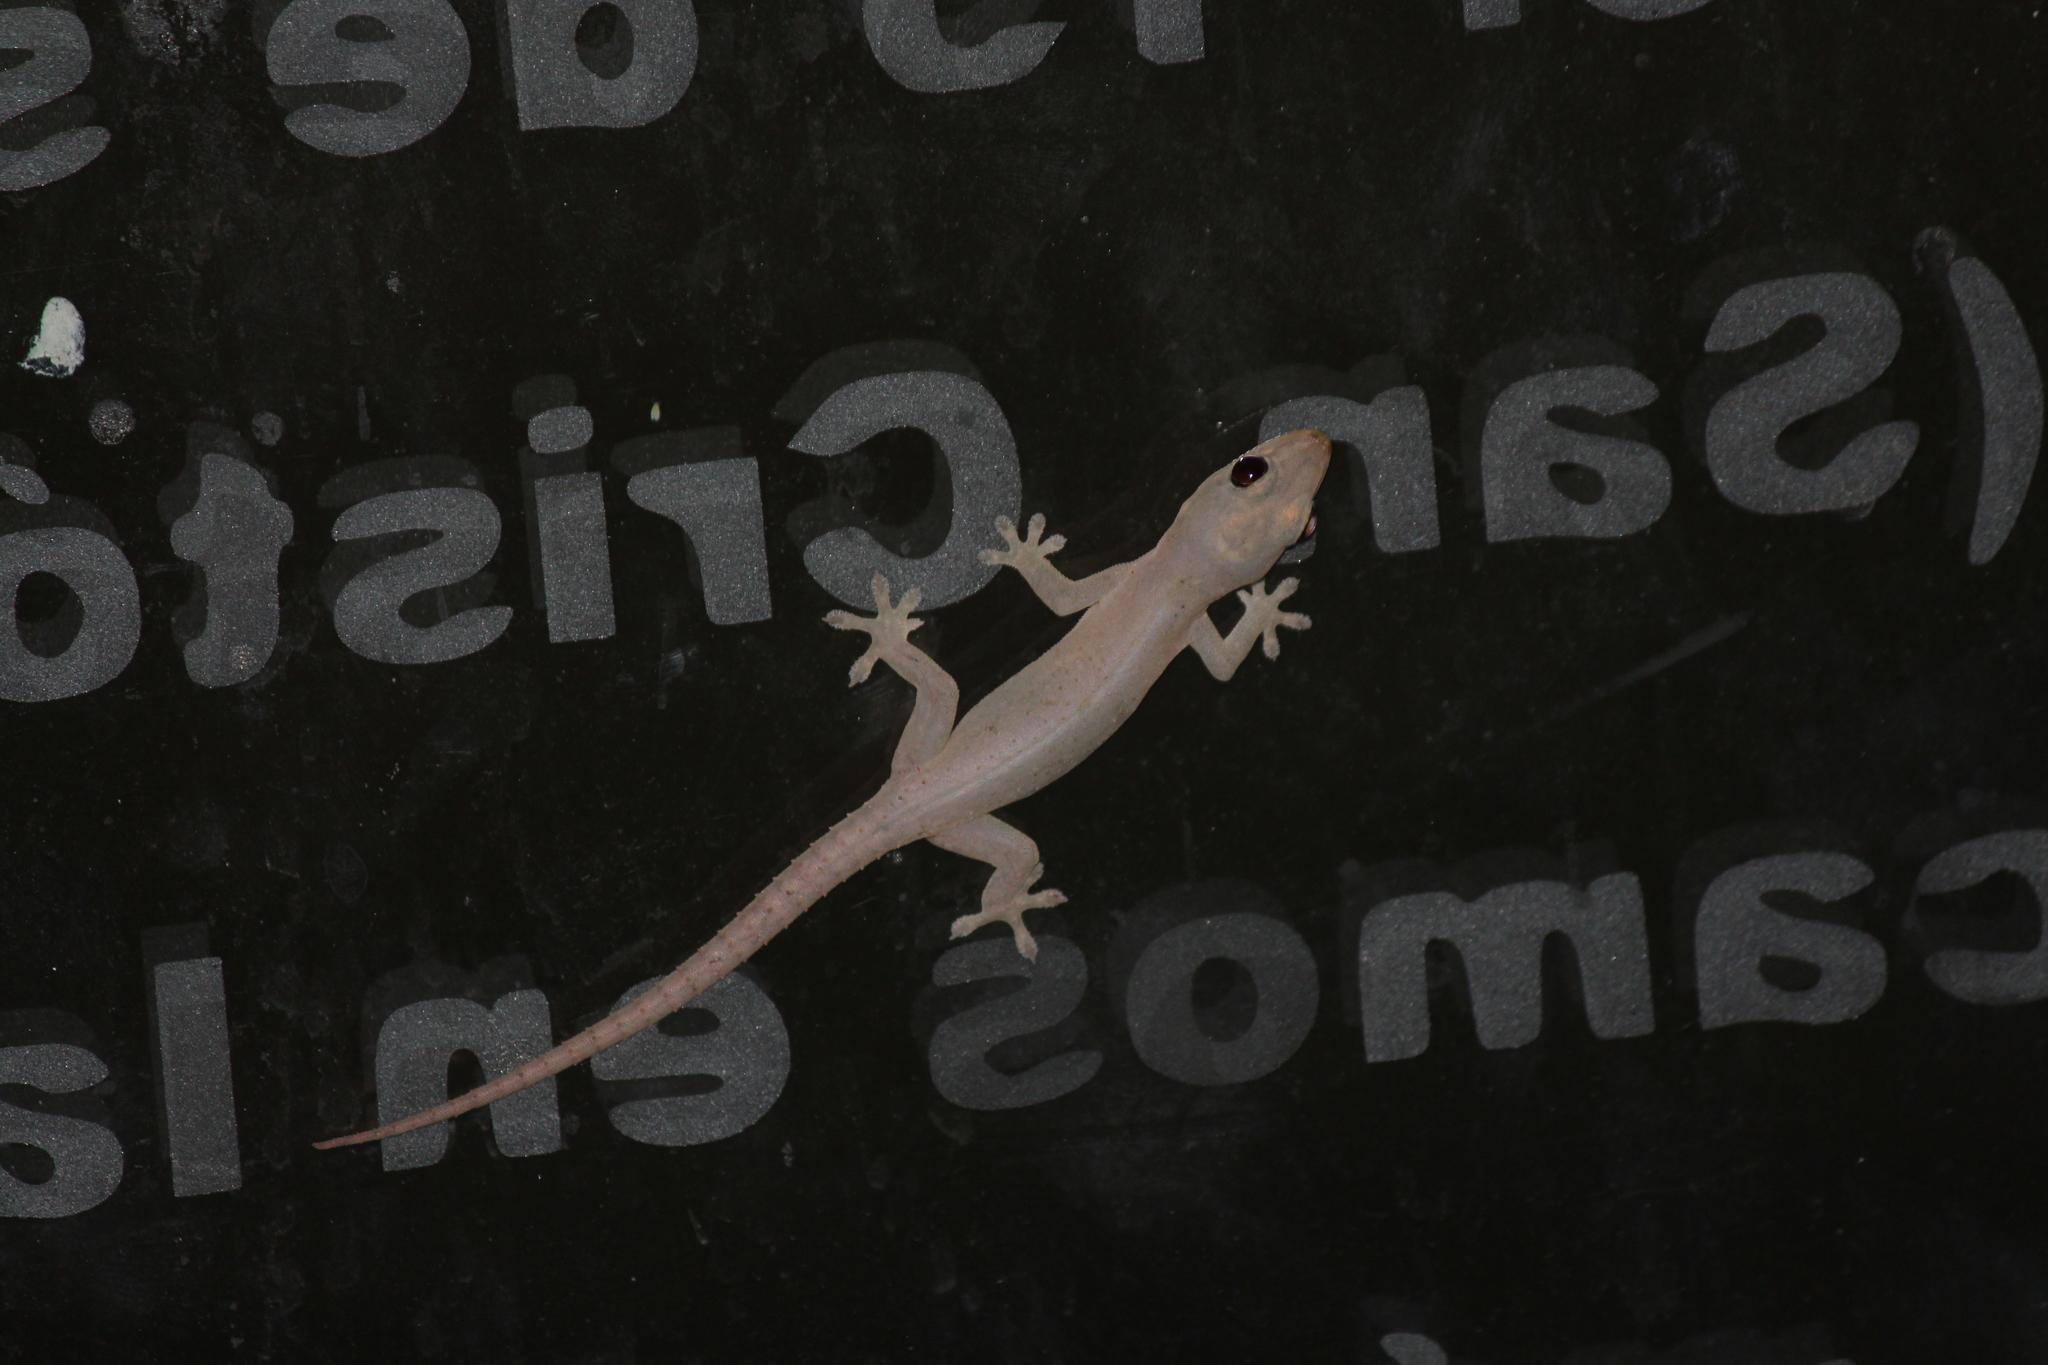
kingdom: Animalia
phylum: Chordata
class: Squamata
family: Gekkonidae
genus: Hemidactylus
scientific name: Hemidactylus frenatus
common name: Common house gecko
